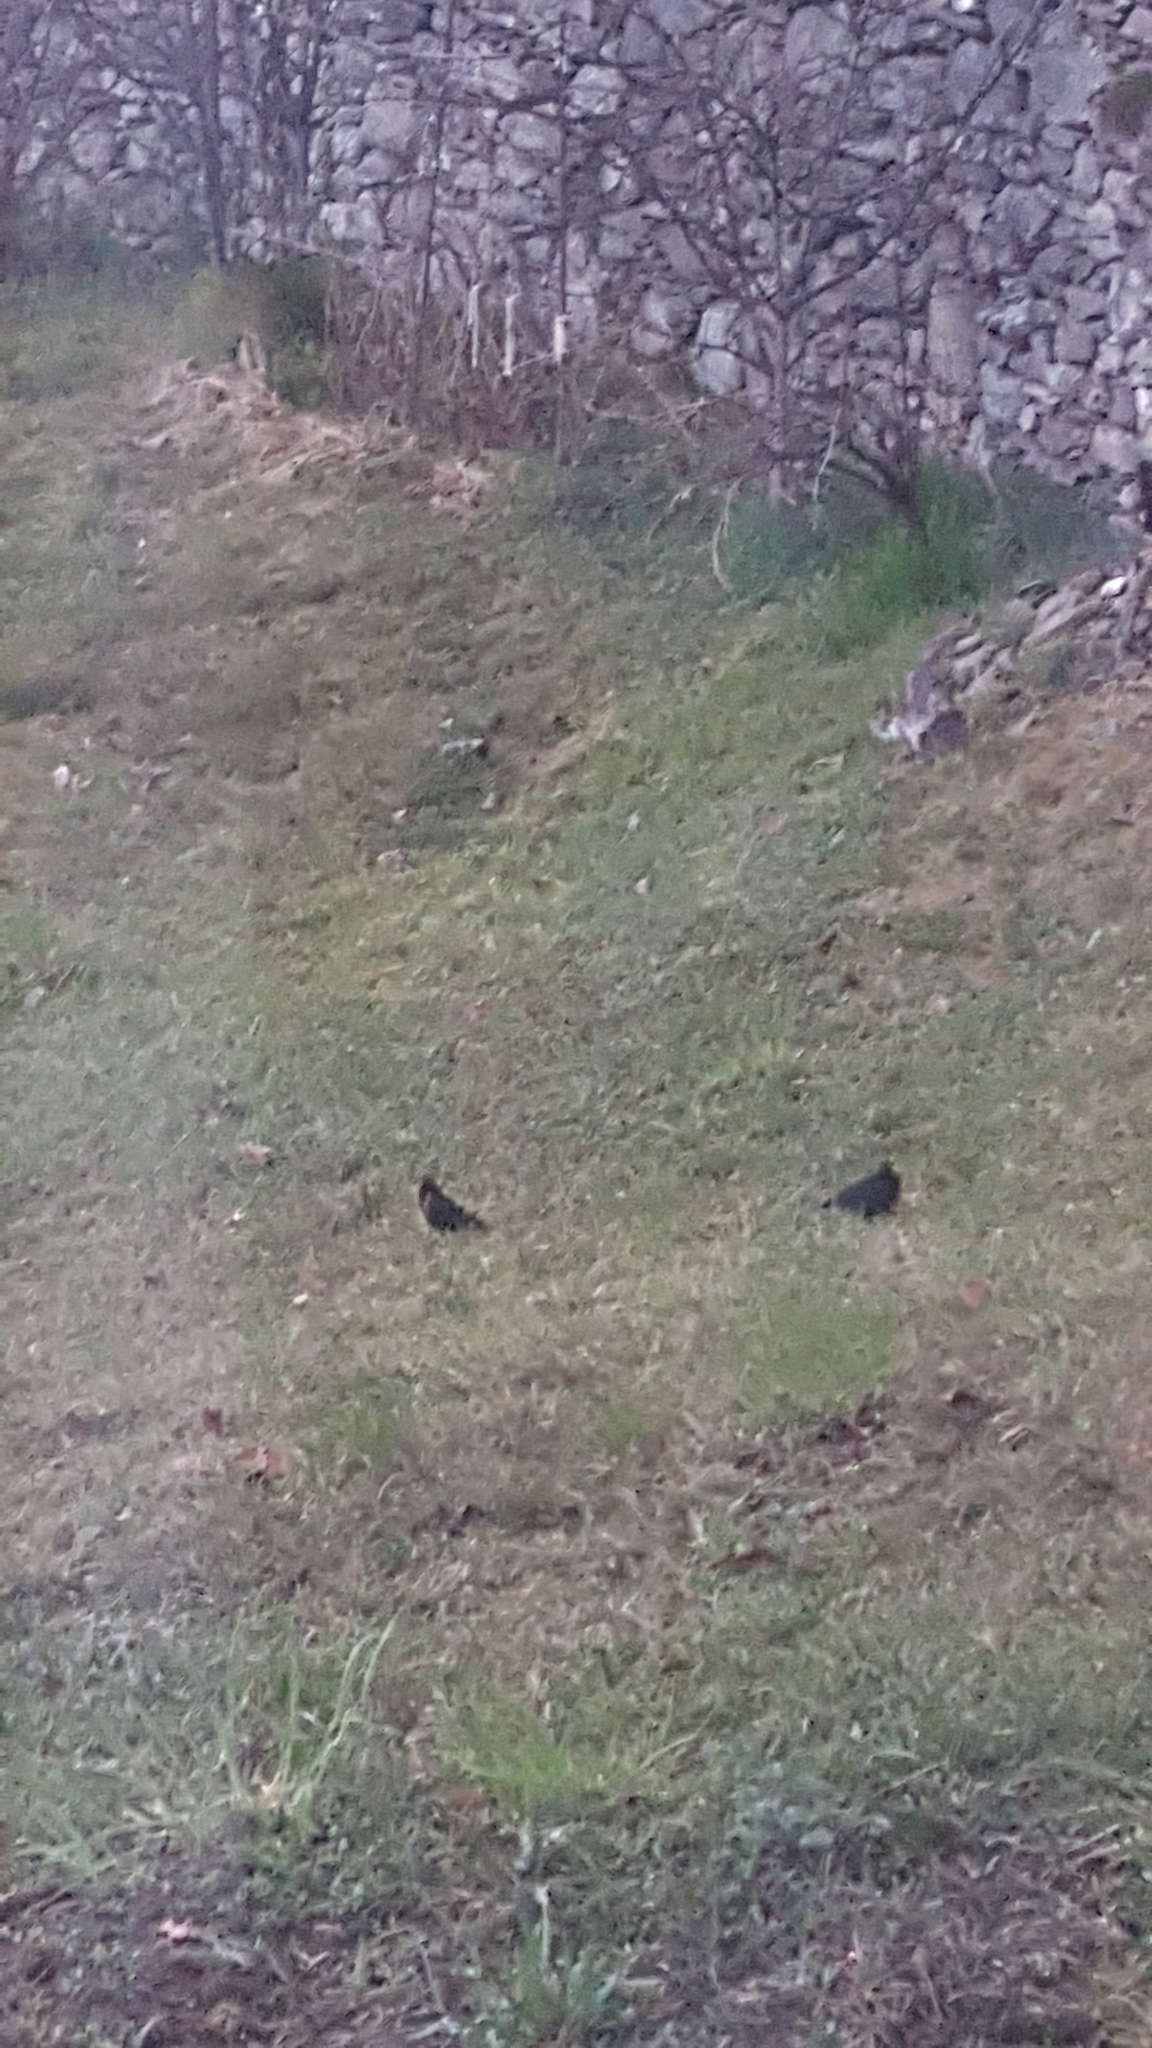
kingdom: Animalia
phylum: Chordata
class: Aves
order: Passeriformes
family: Turdidae
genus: Turdus
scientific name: Turdus merula
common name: Common blackbird
